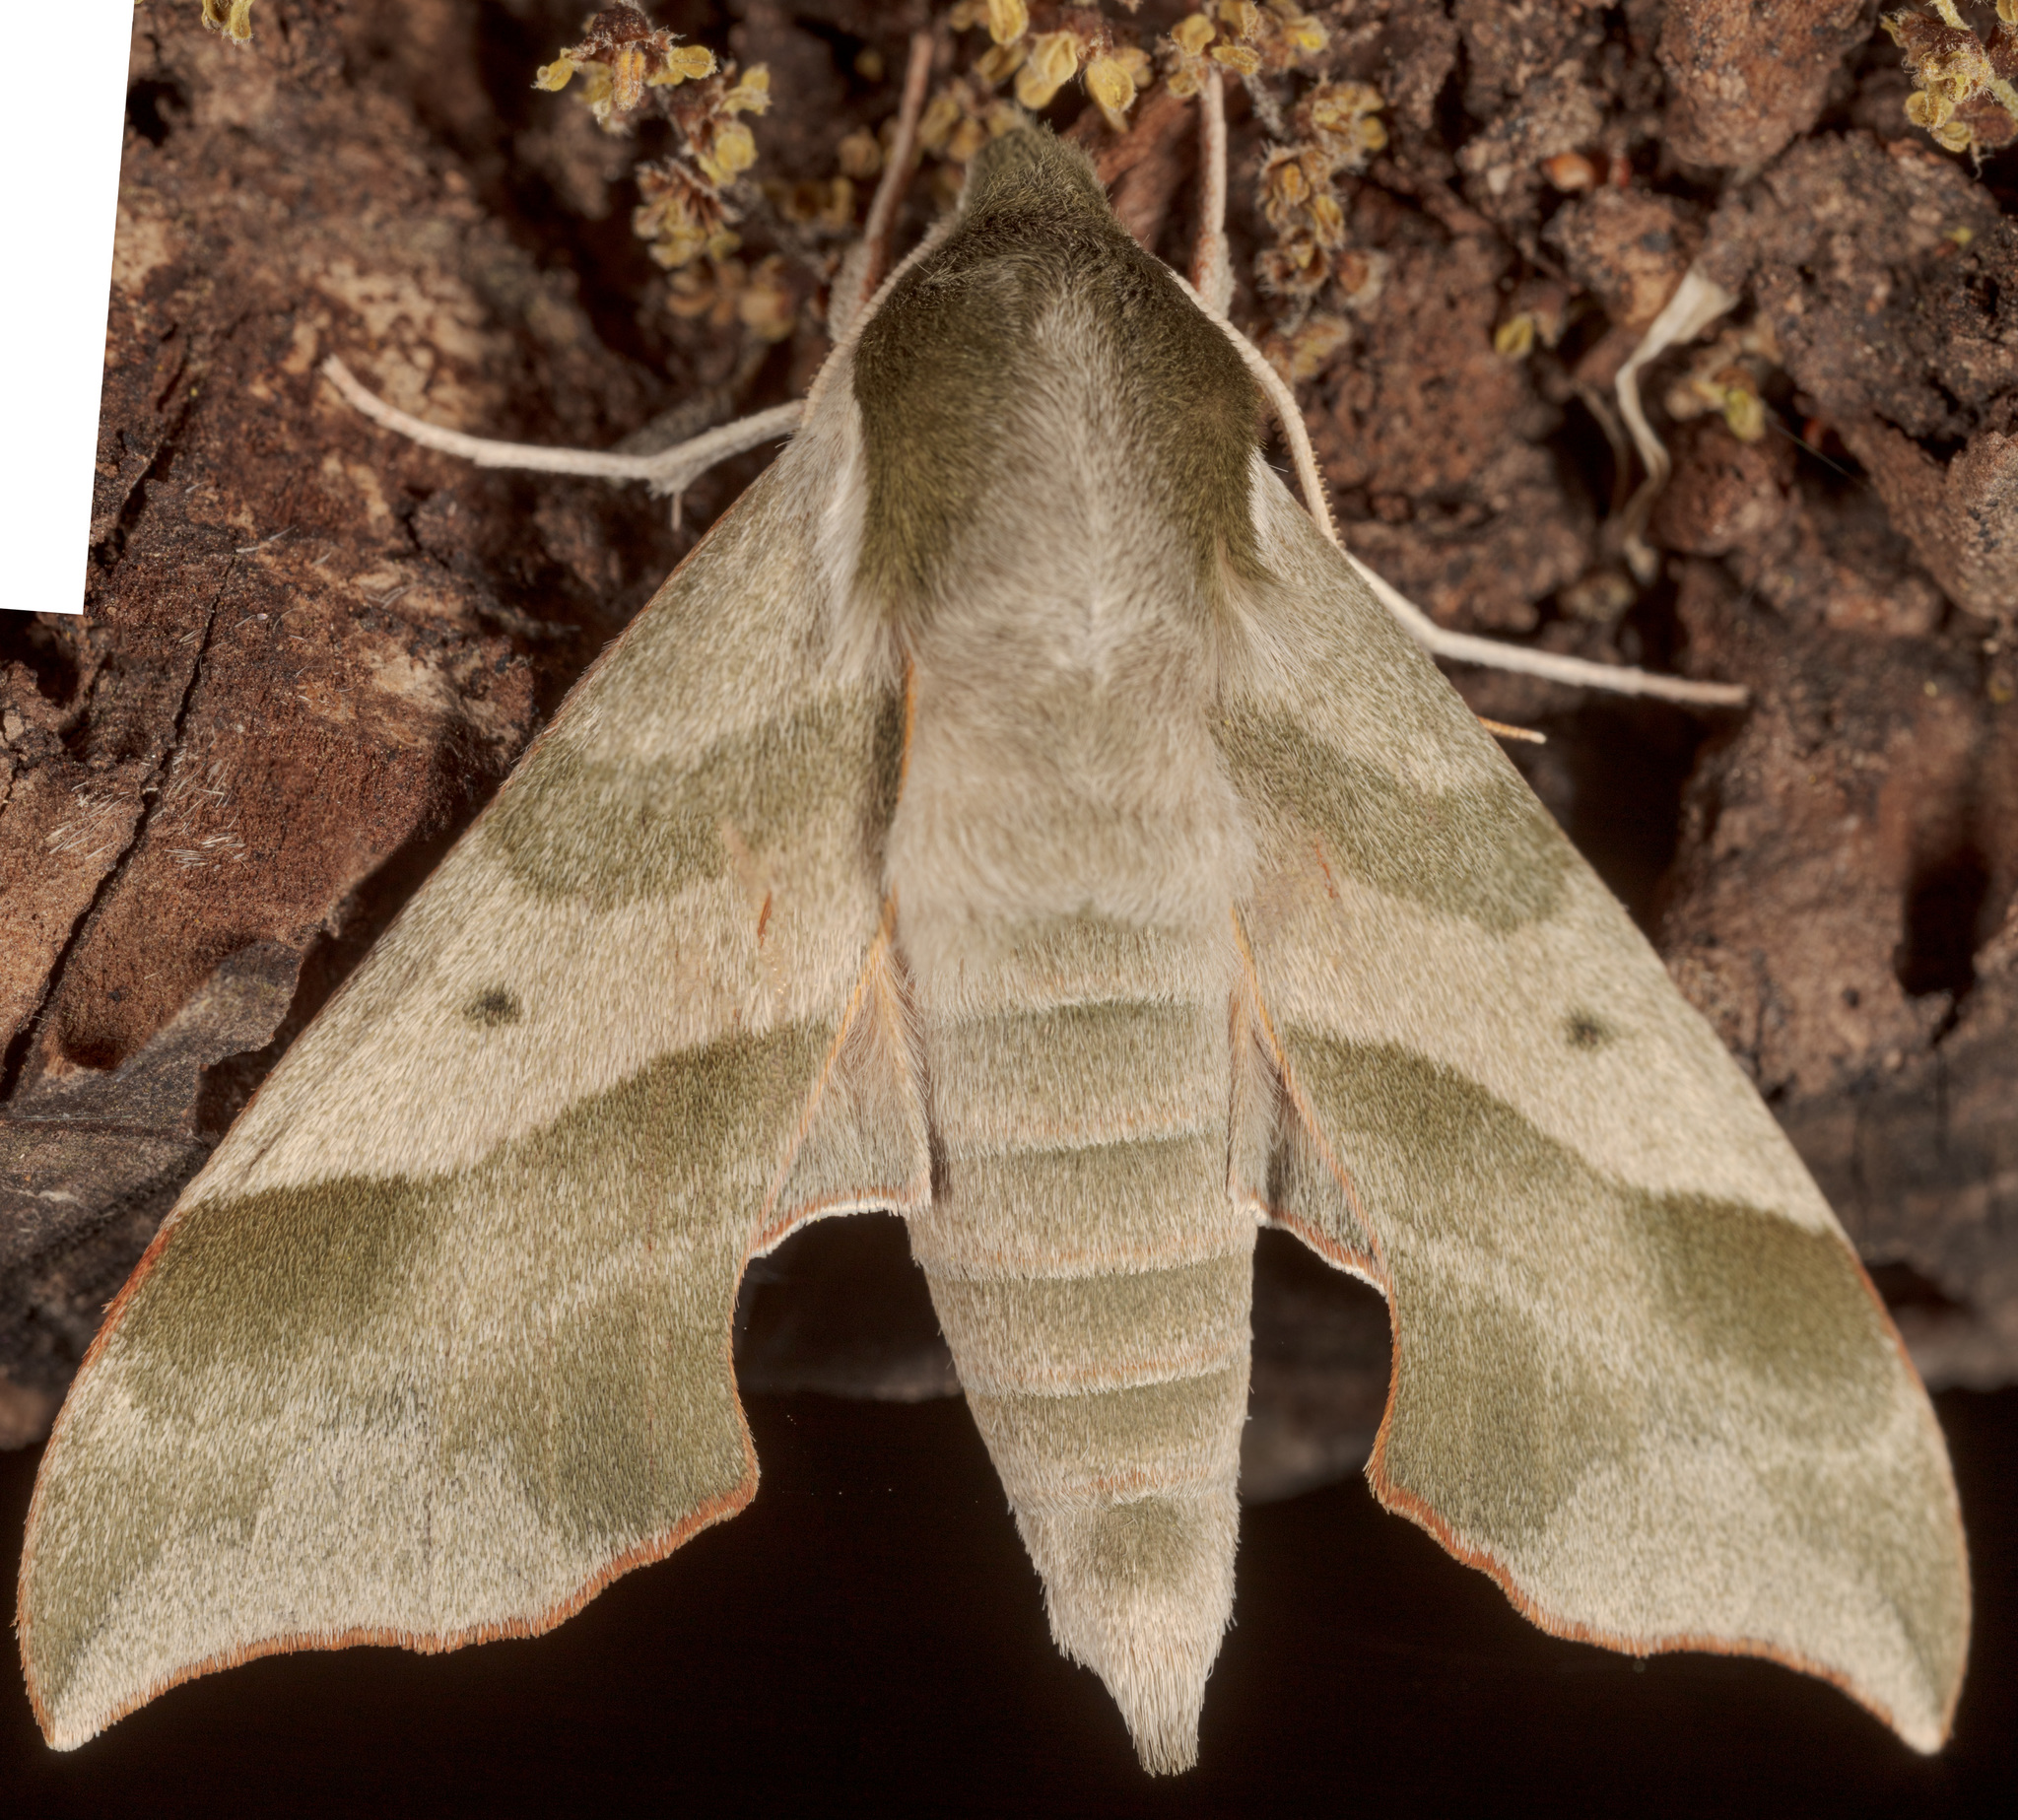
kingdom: Animalia
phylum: Arthropoda
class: Insecta
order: Lepidoptera
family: Sphingidae
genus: Darapsa
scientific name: Darapsa myron
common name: Hog sphinx
